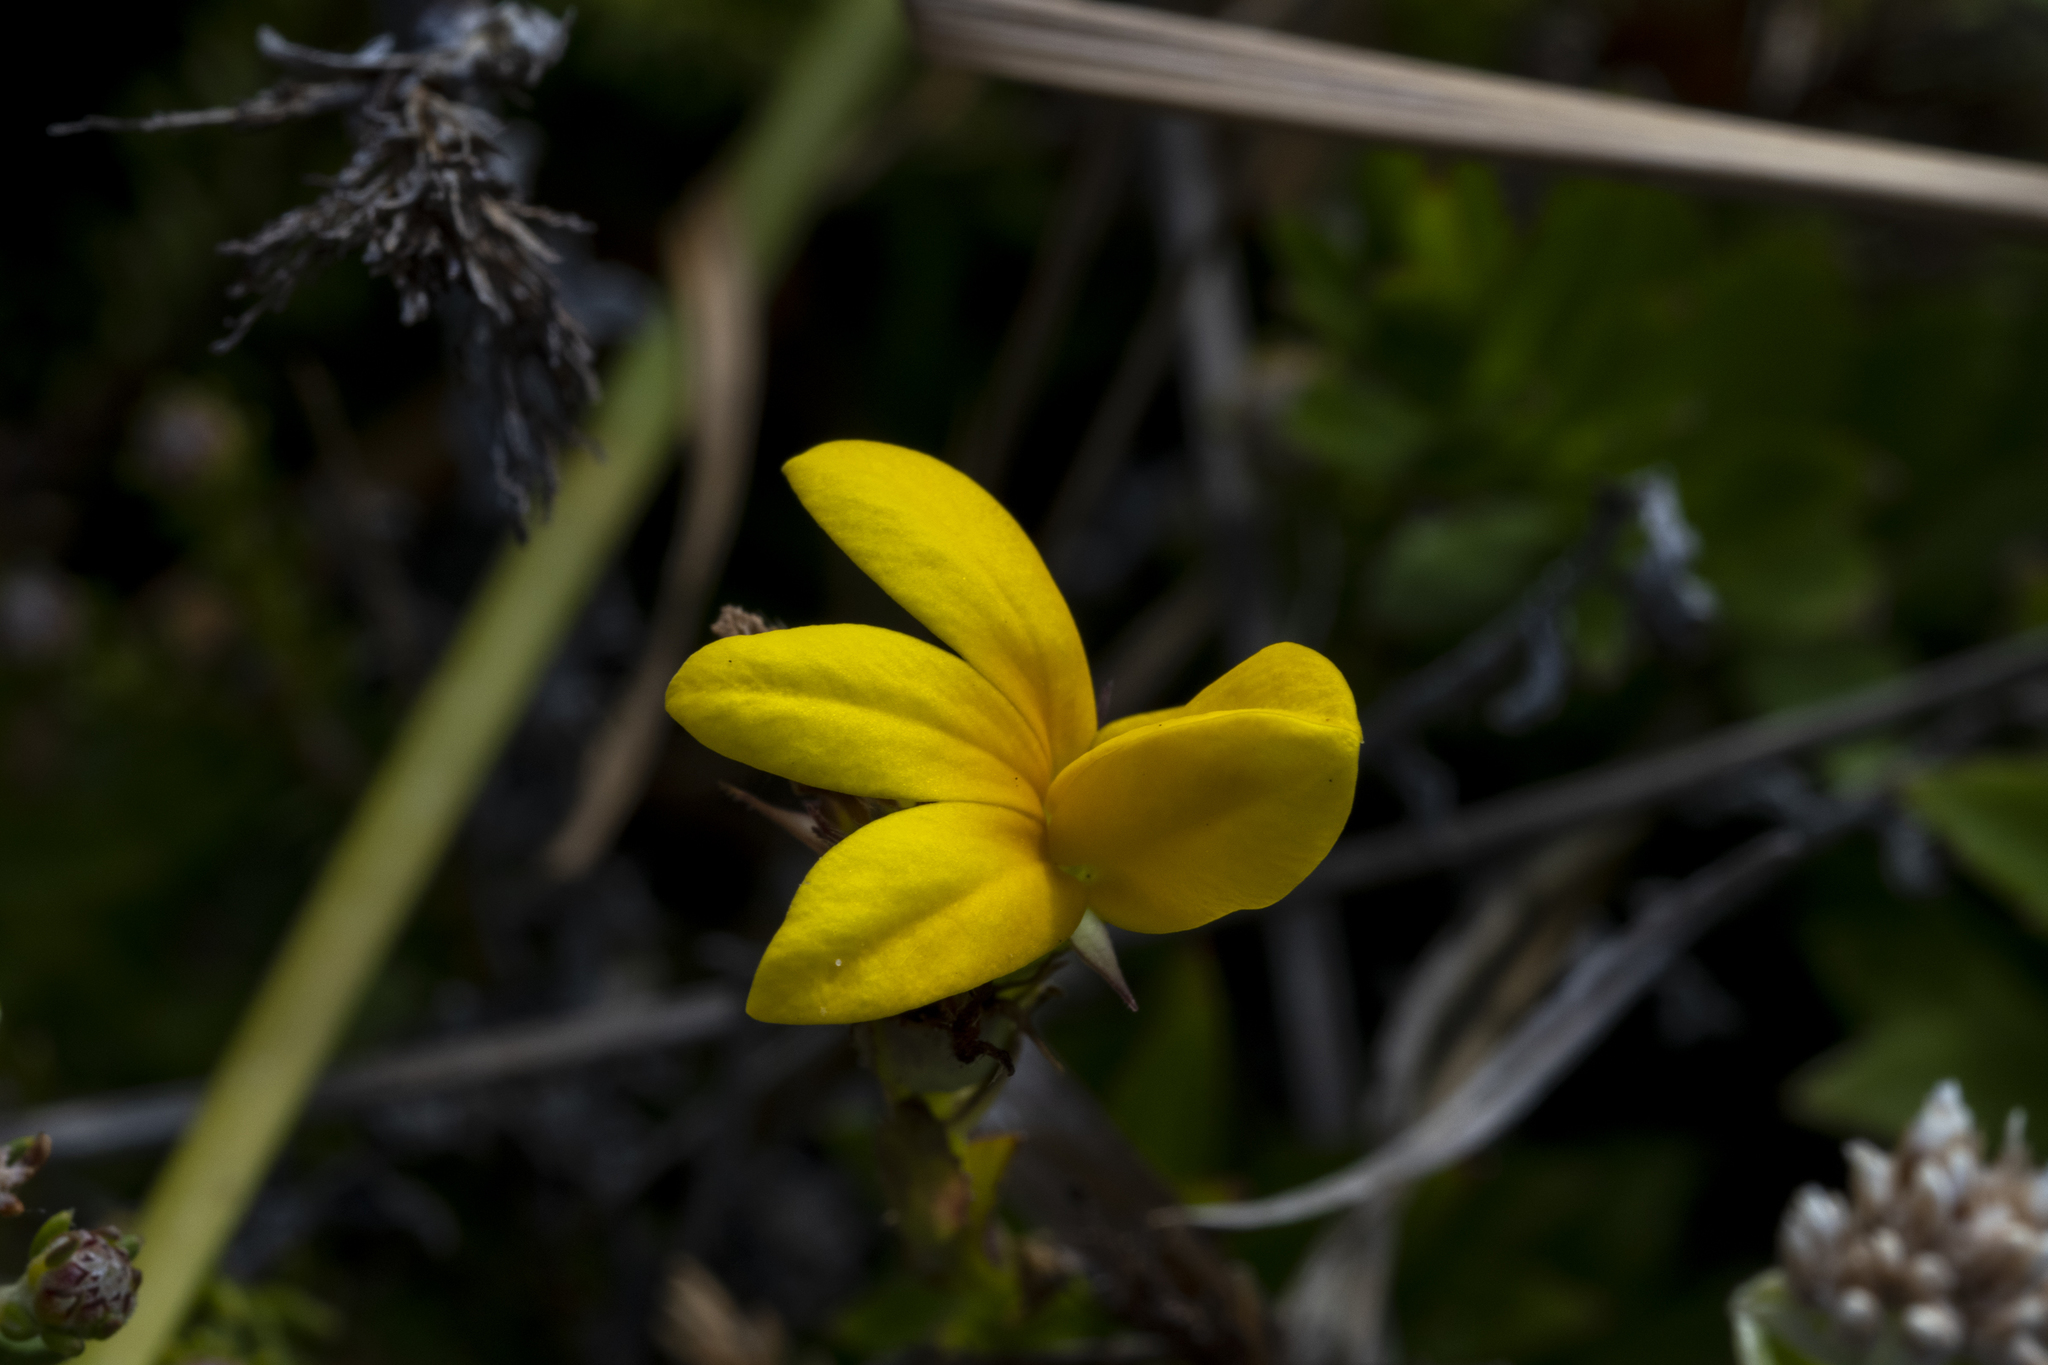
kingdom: Plantae
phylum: Tracheophyta
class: Magnoliopsida
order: Asterales
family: Campanulaceae
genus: Monopsis
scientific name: Monopsis lutea
